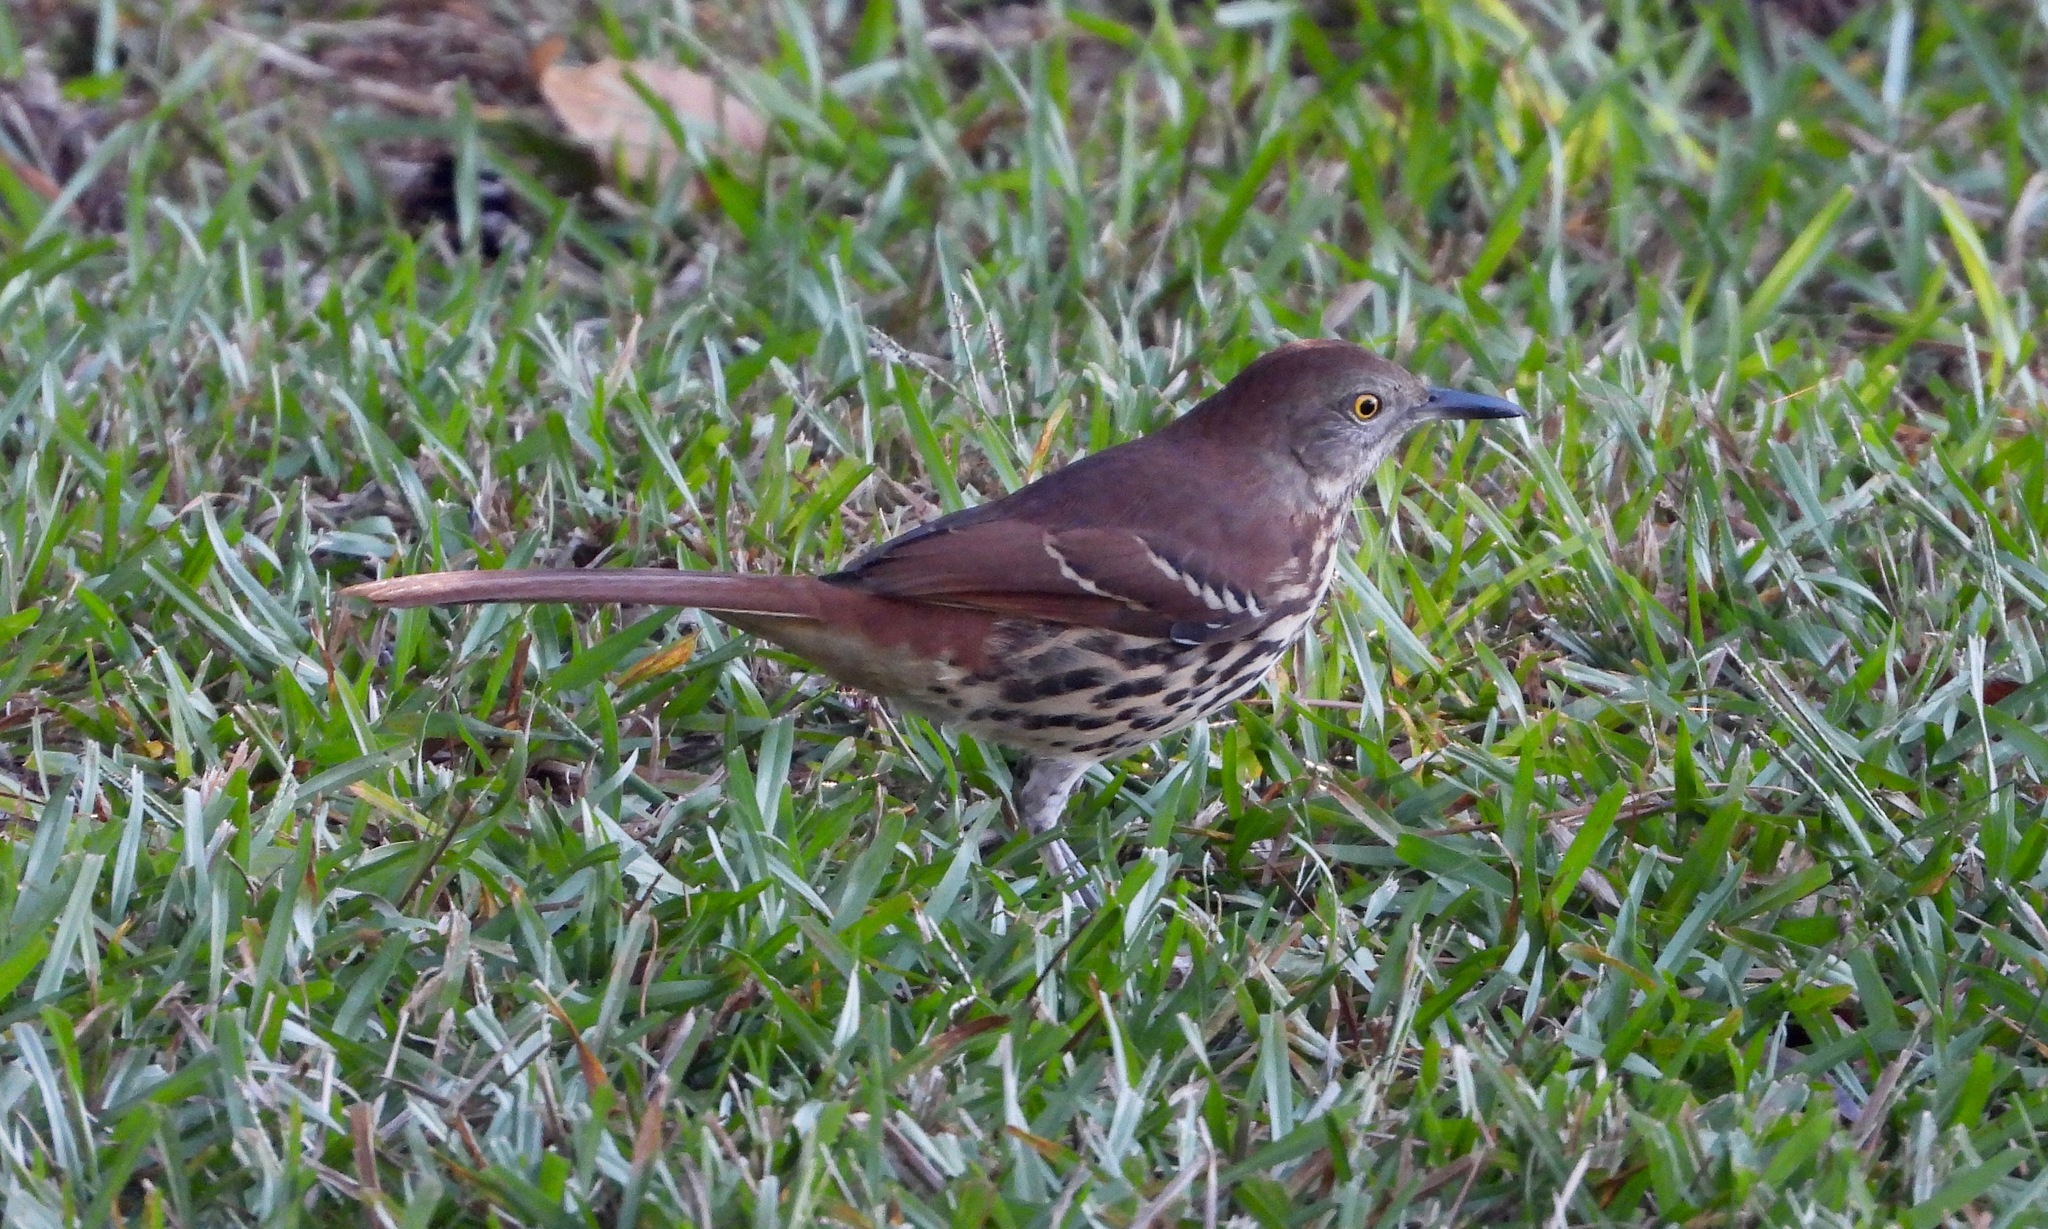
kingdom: Animalia
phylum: Chordata
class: Aves
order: Passeriformes
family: Mimidae
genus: Toxostoma
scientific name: Toxostoma rufum
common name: Brown thrasher
